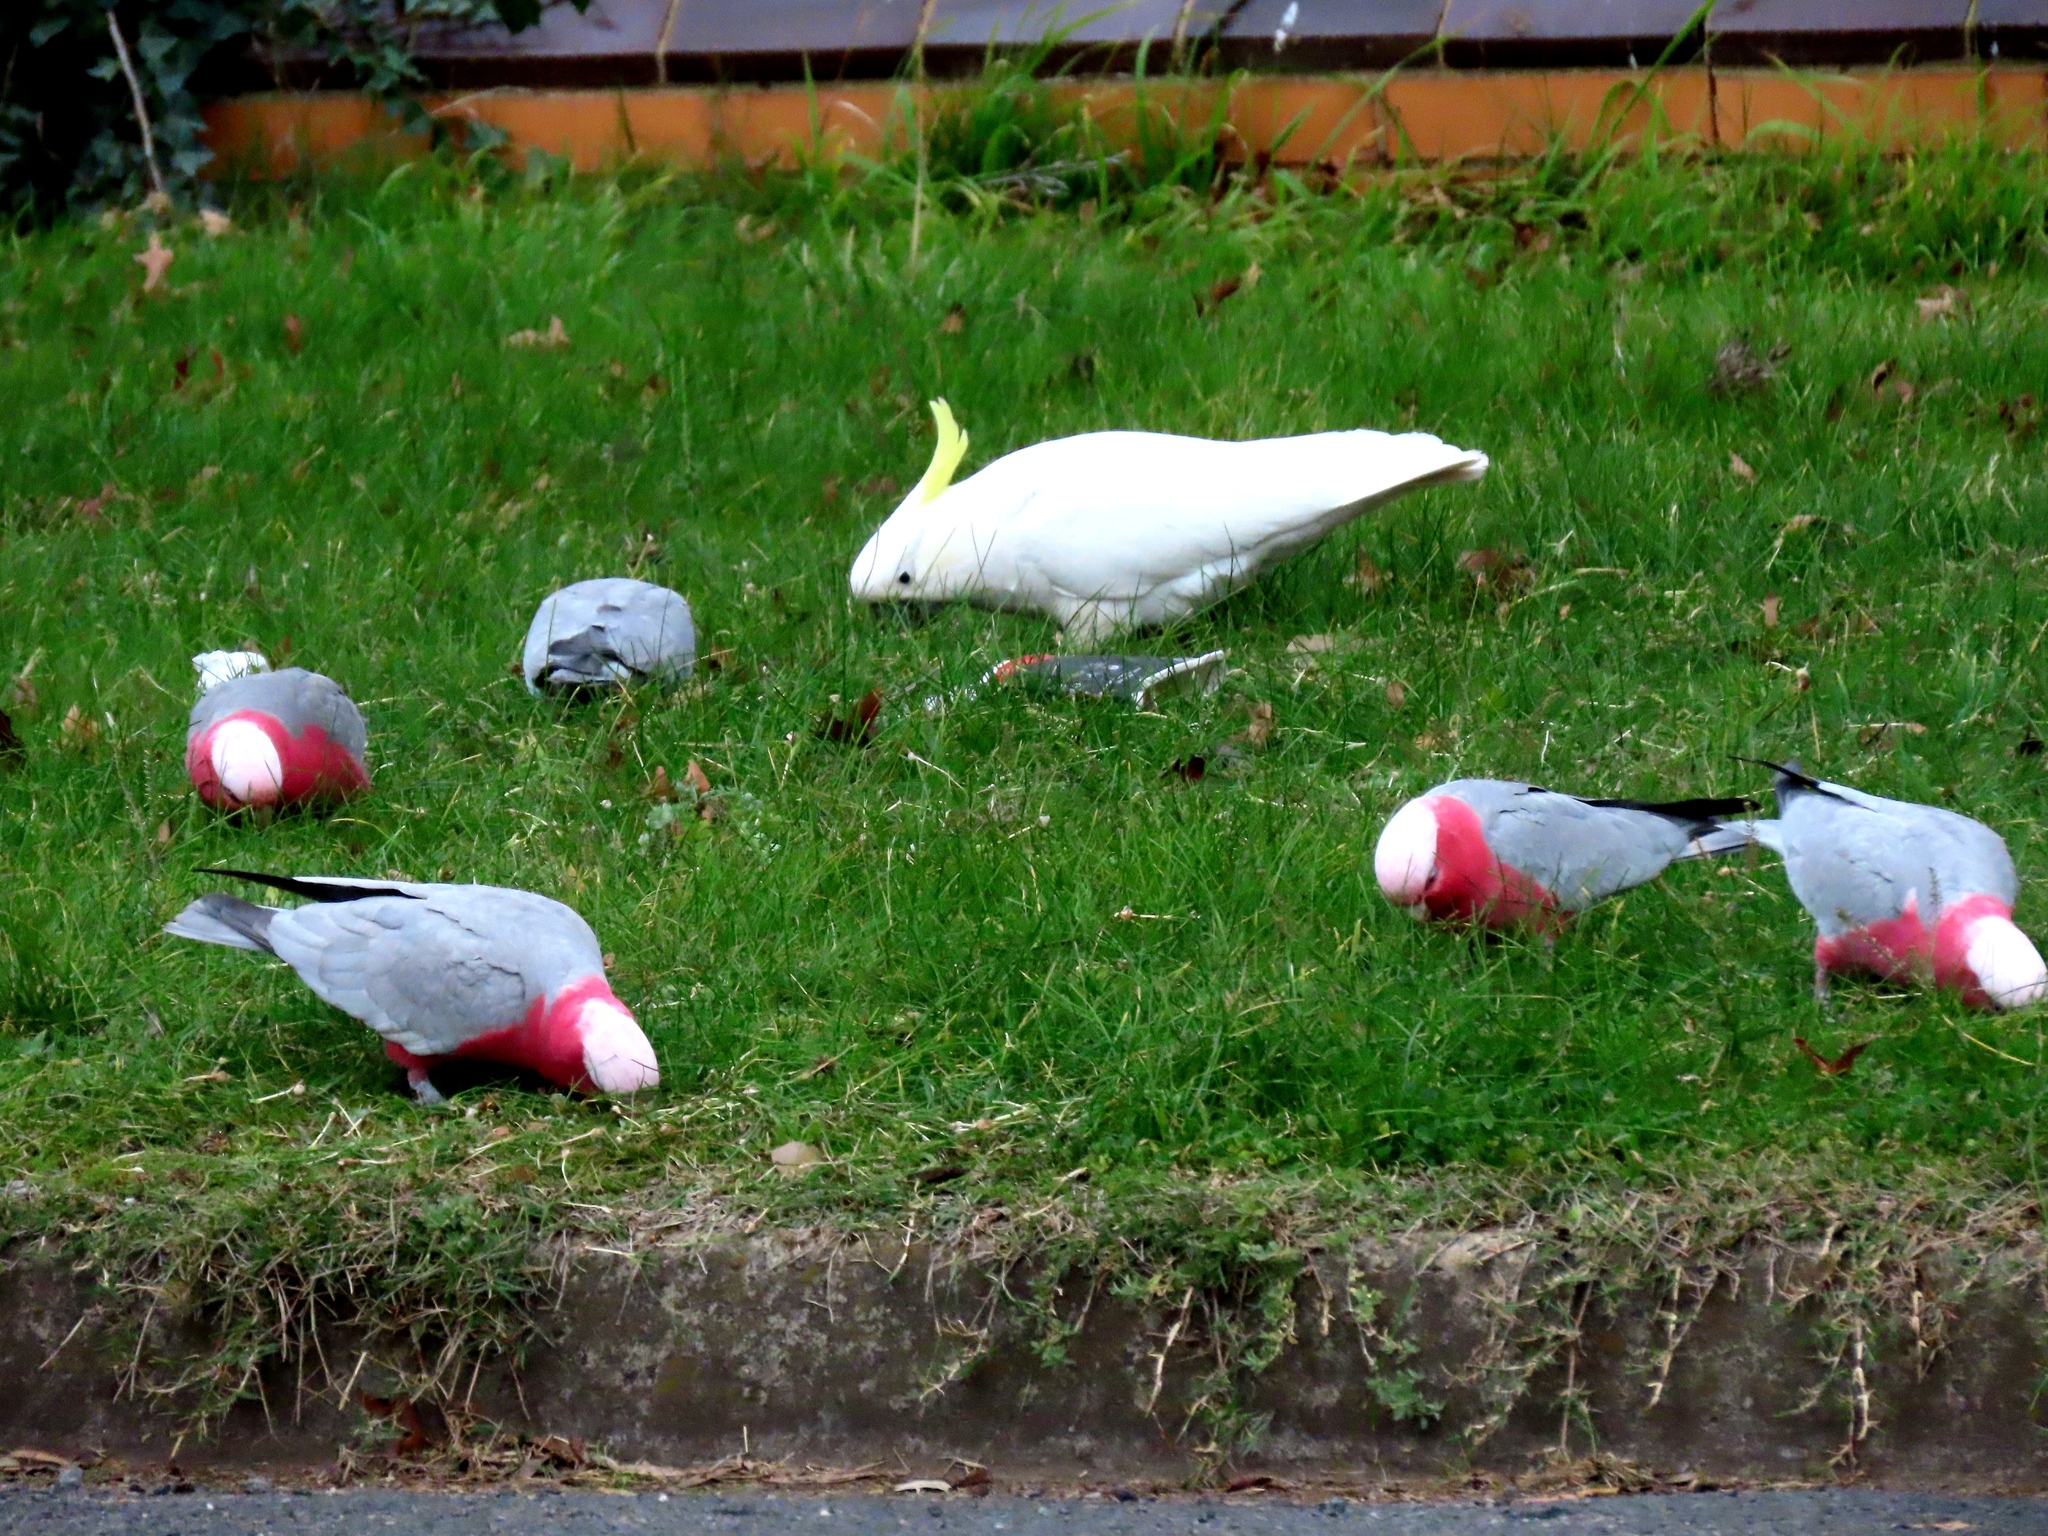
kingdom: Animalia
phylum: Chordata
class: Aves
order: Psittaciformes
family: Psittacidae
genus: Eolophus
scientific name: Eolophus roseicapilla
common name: Galah
